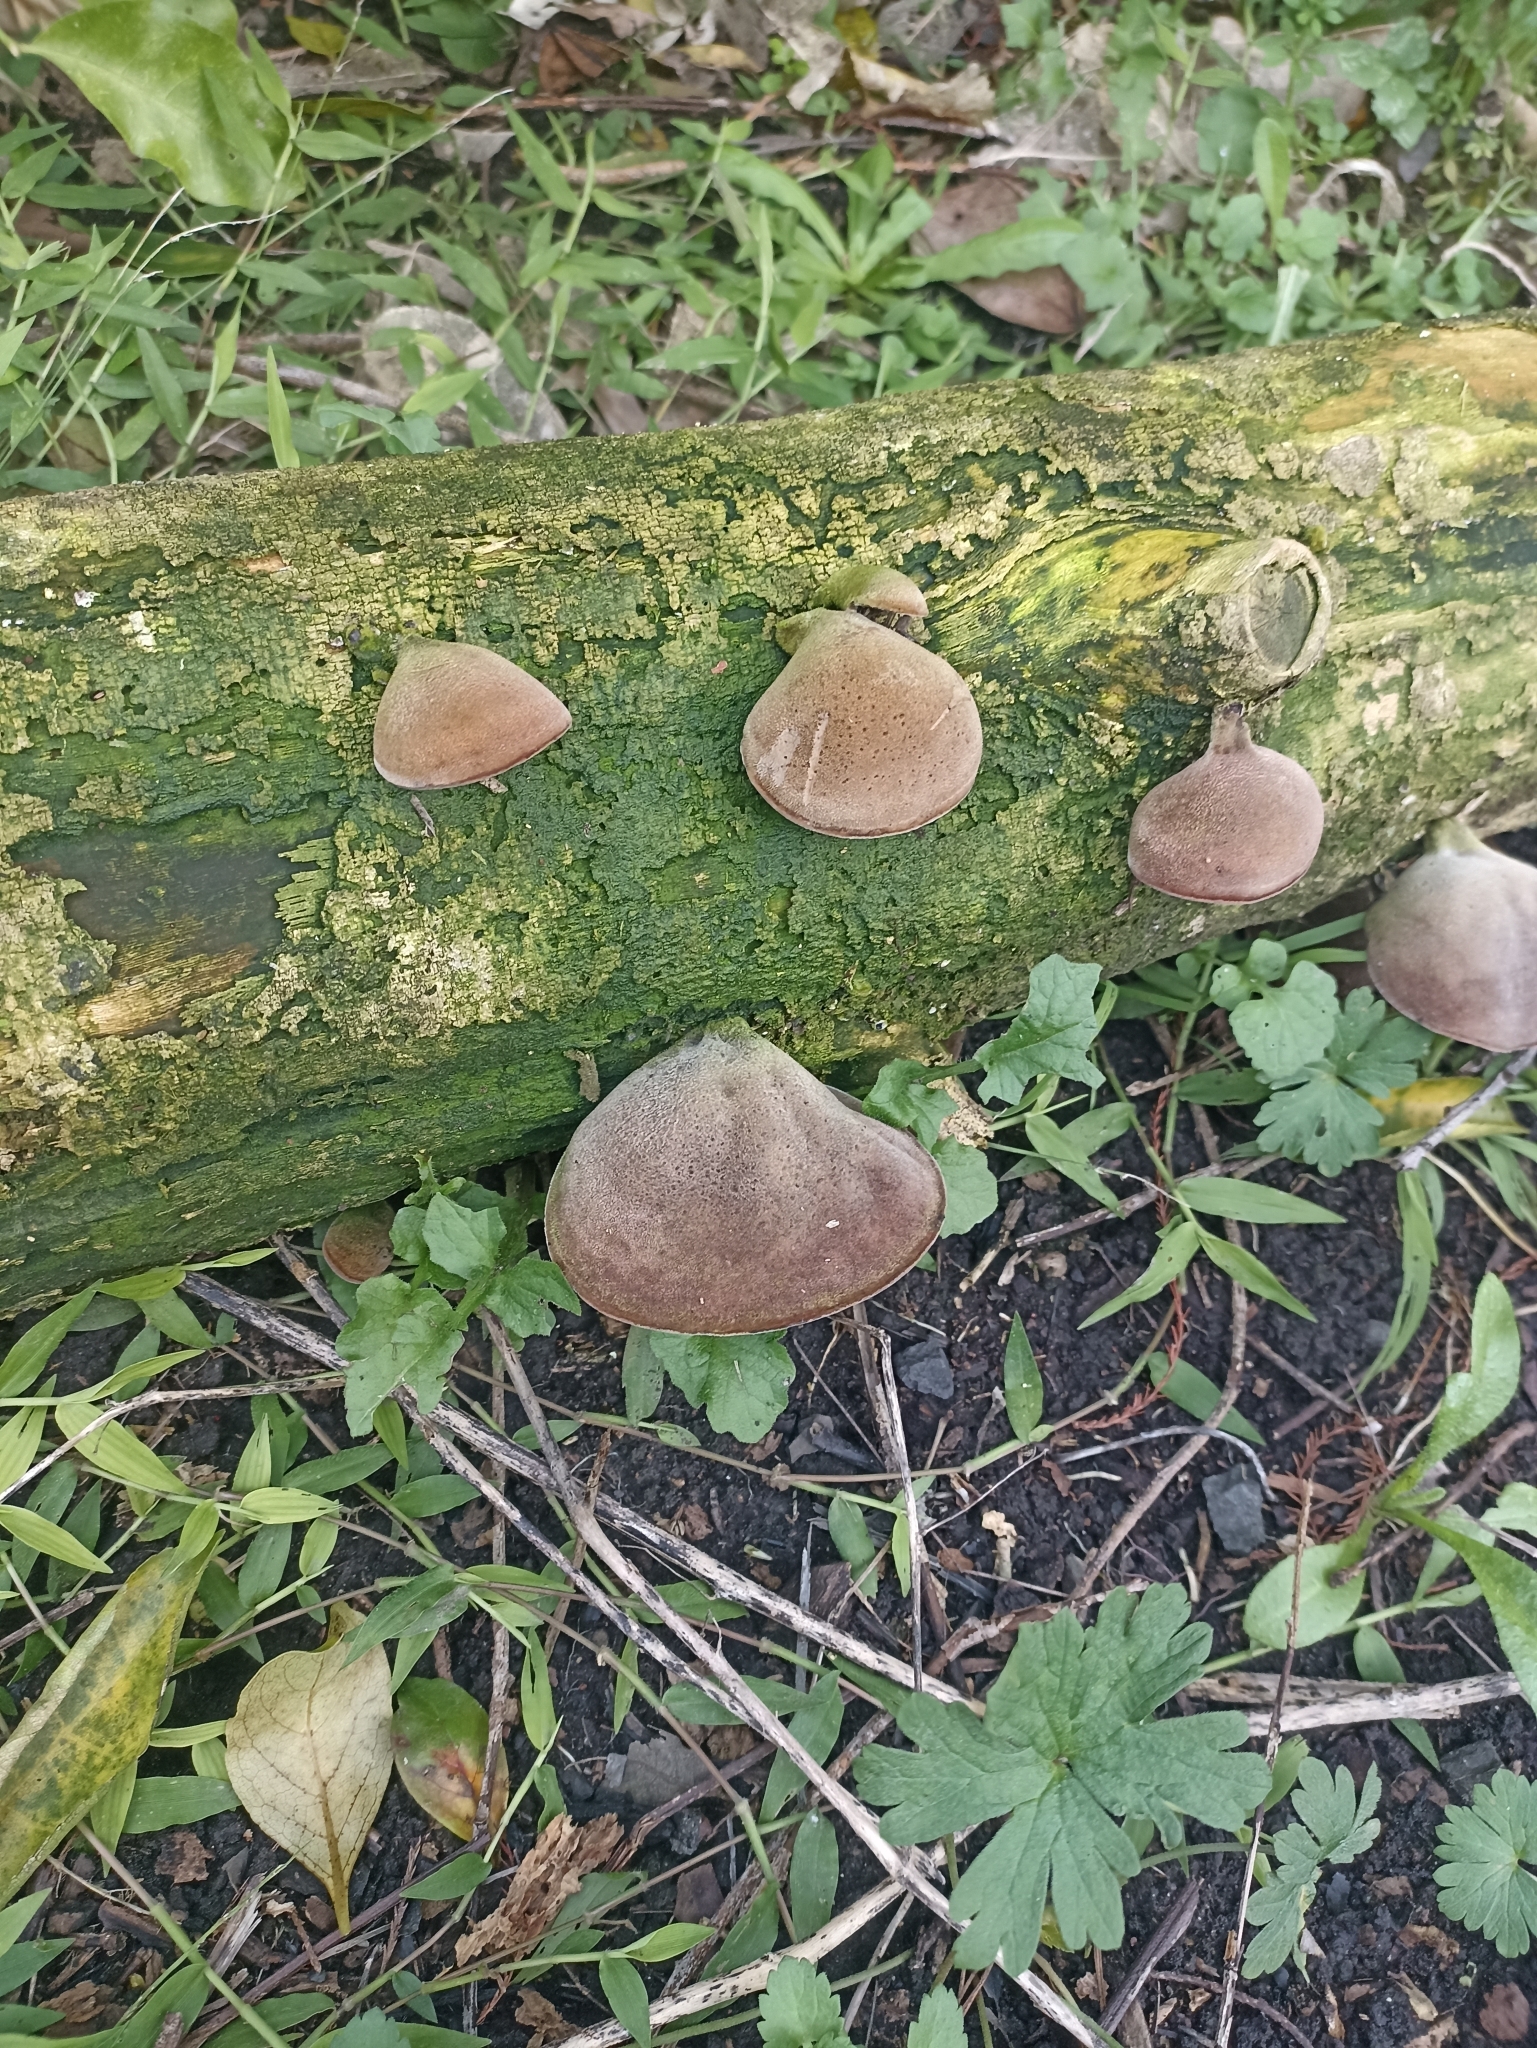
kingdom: Fungi
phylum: Basidiomycota
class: Agaricomycetes
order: Auriculariales
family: Auriculariaceae
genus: Auricularia
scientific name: Auricularia cornea
